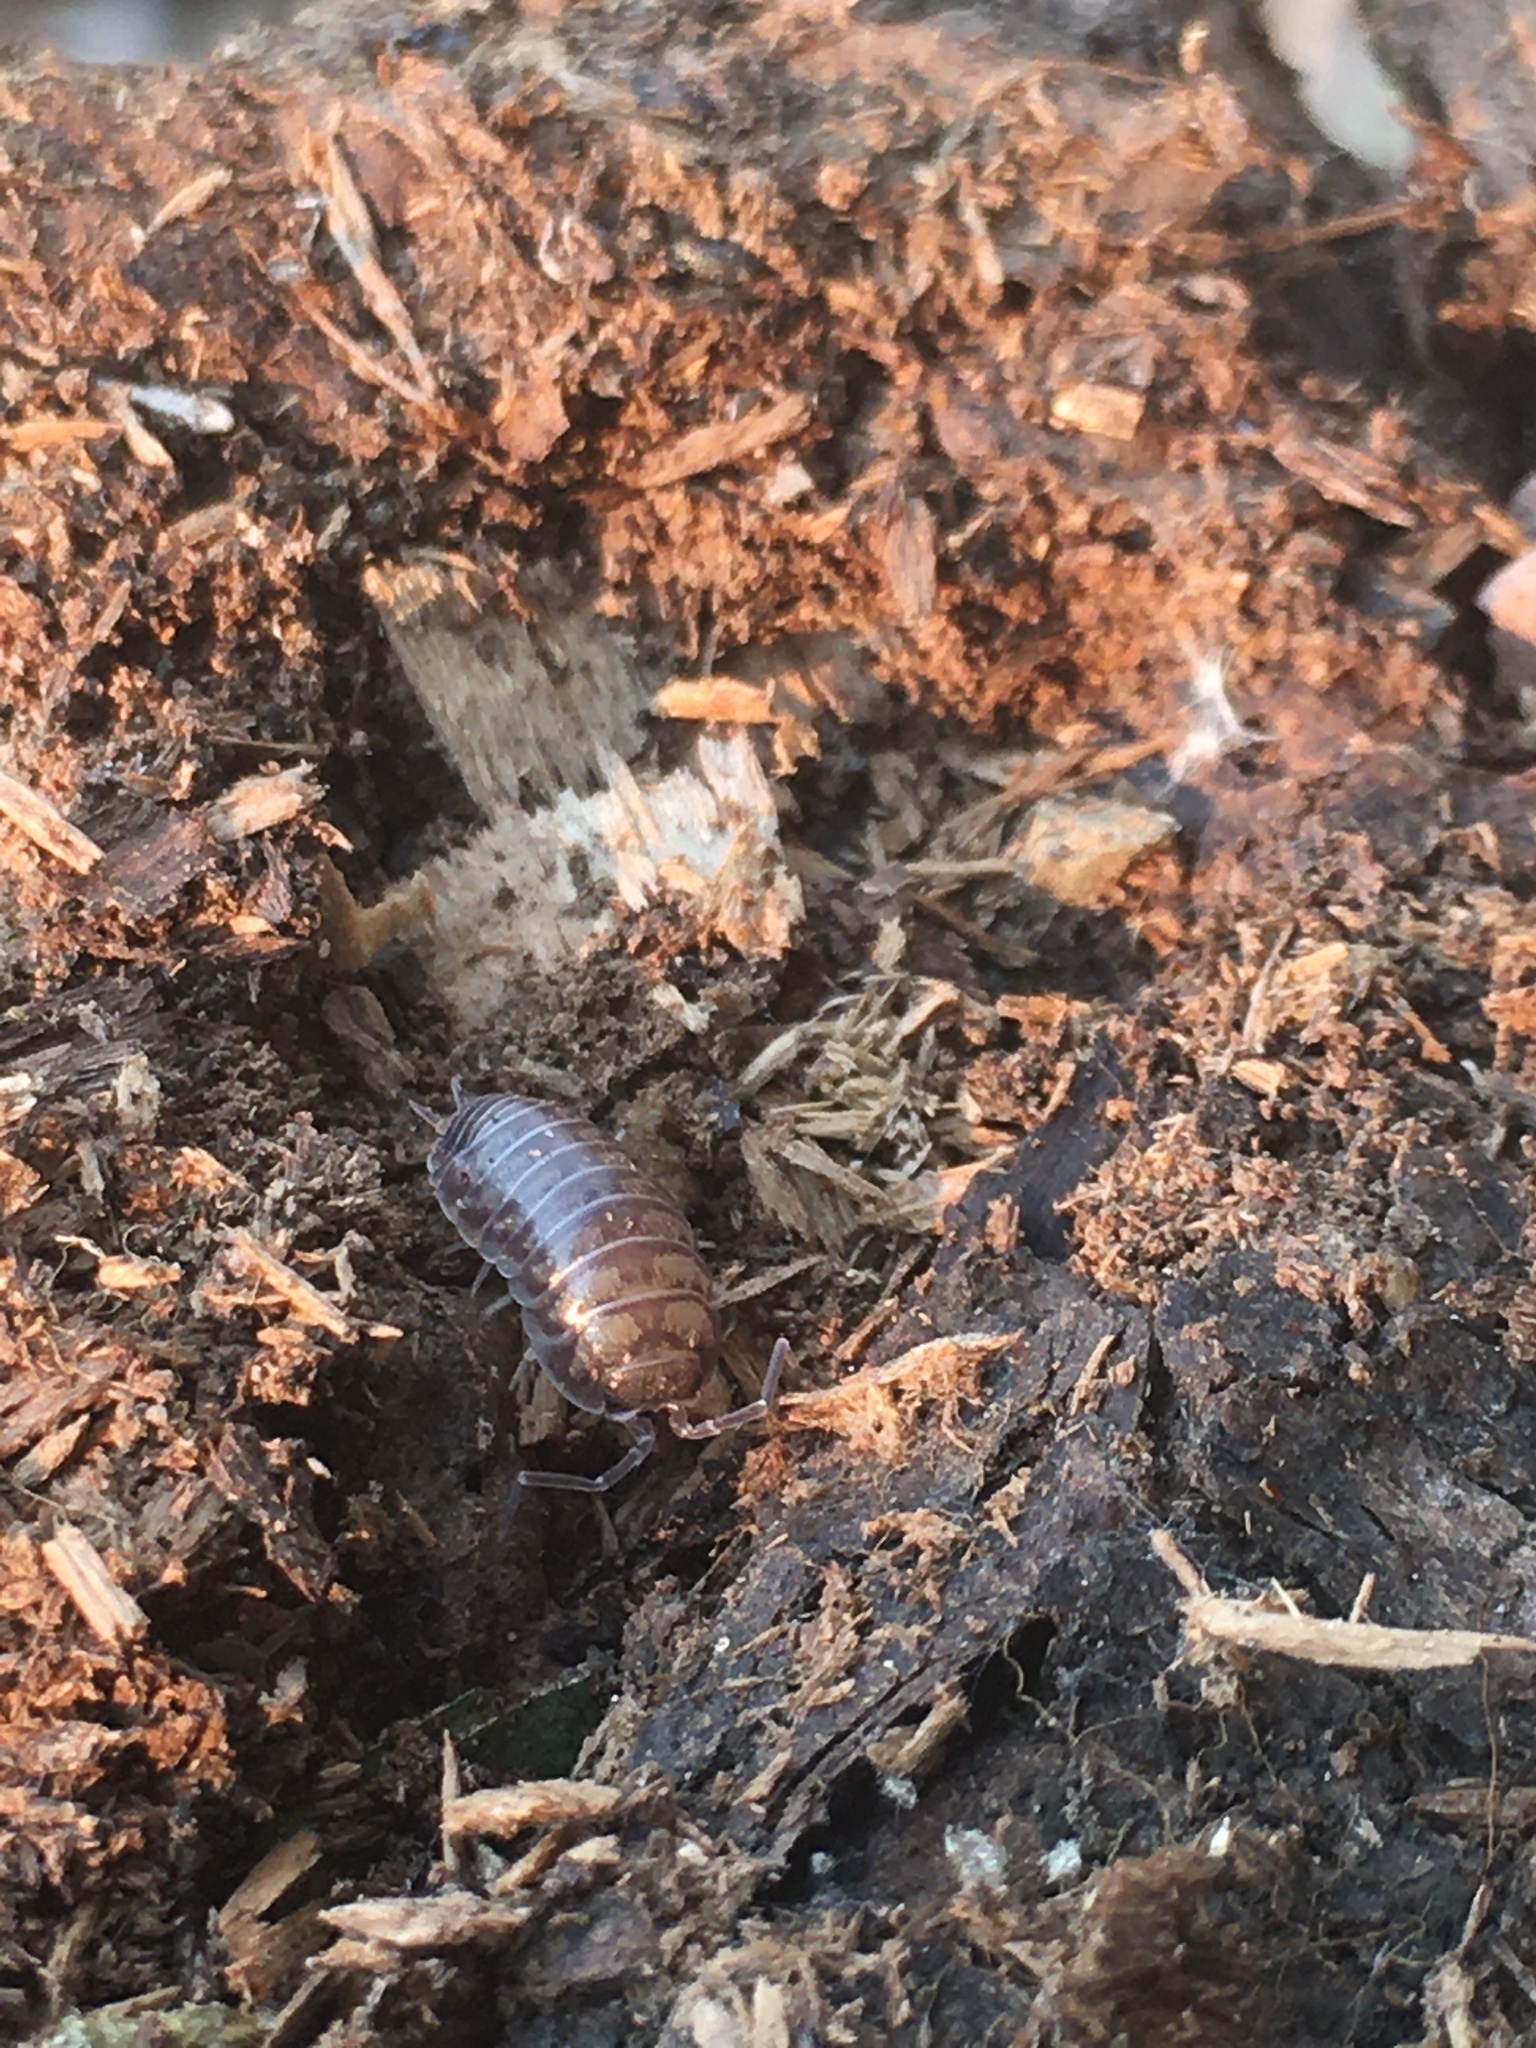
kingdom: Animalia
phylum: Arthropoda
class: Malacostraca
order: Isopoda
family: Cylisticidae
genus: Cylisticus
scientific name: Cylisticus convexus
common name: Curly woodlouse
